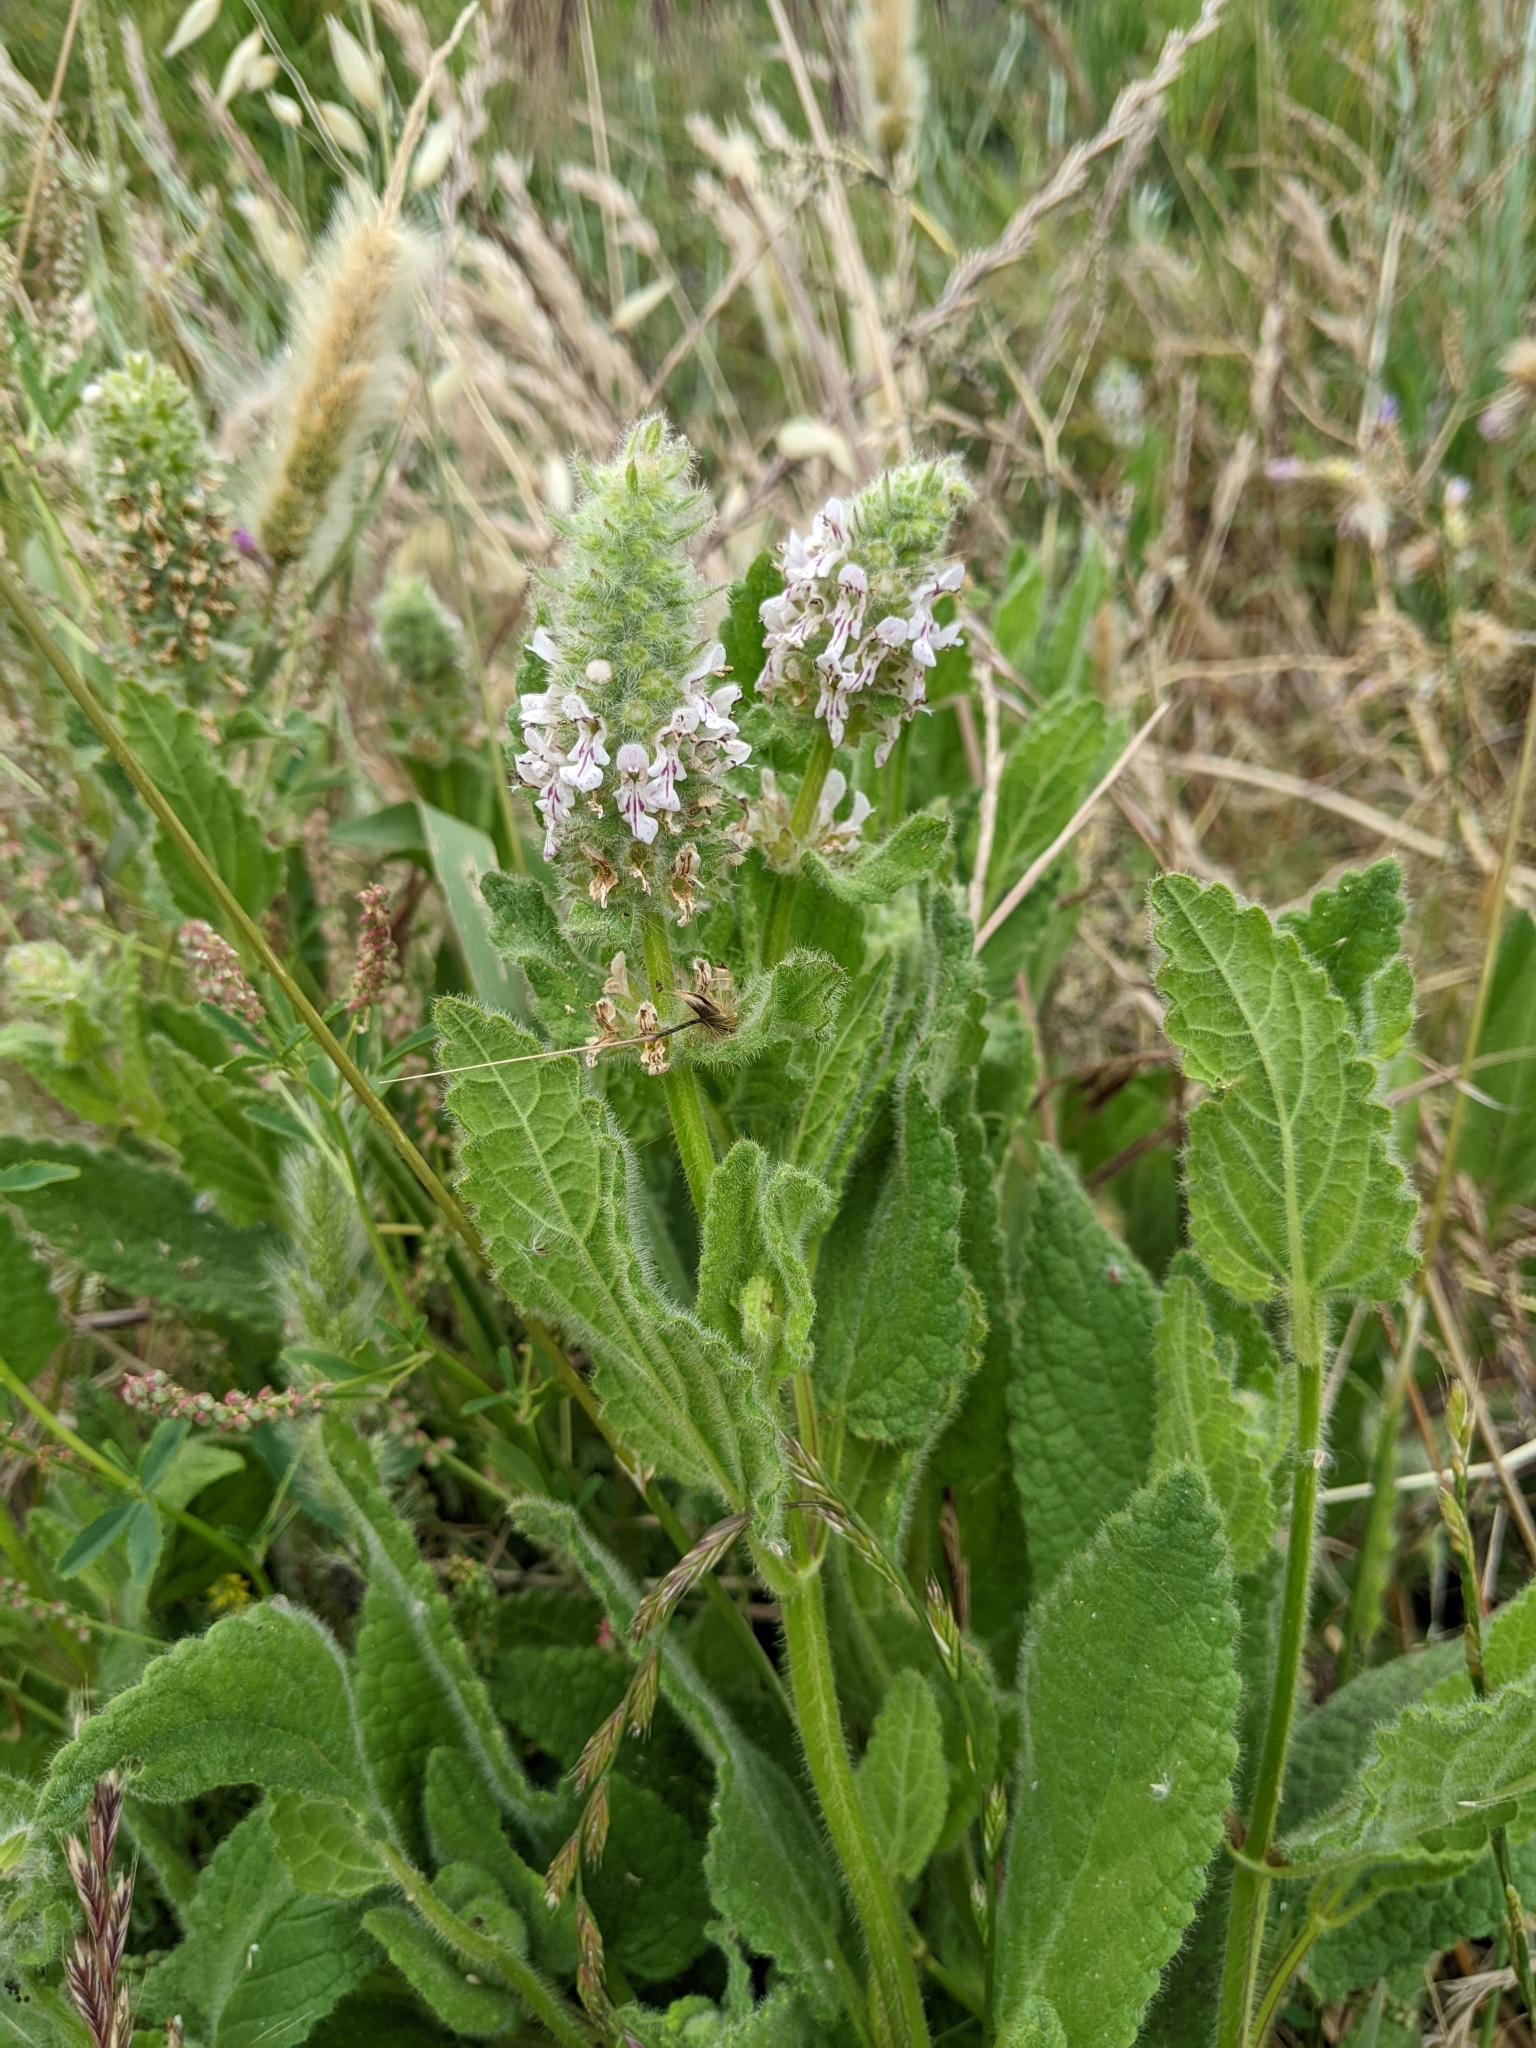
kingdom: Plantae
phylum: Tracheophyta
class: Magnoliopsida
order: Lamiales
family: Lamiaceae
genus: Stachys
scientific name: Stachys pycnantha
